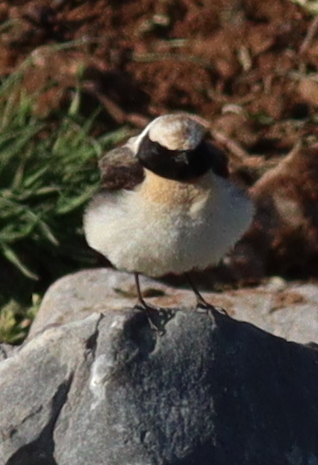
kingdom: Animalia
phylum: Chordata
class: Aves
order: Passeriformes
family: Muscicapidae
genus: Oenanthe
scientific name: Oenanthe hispanica
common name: Black-eared wheatear
